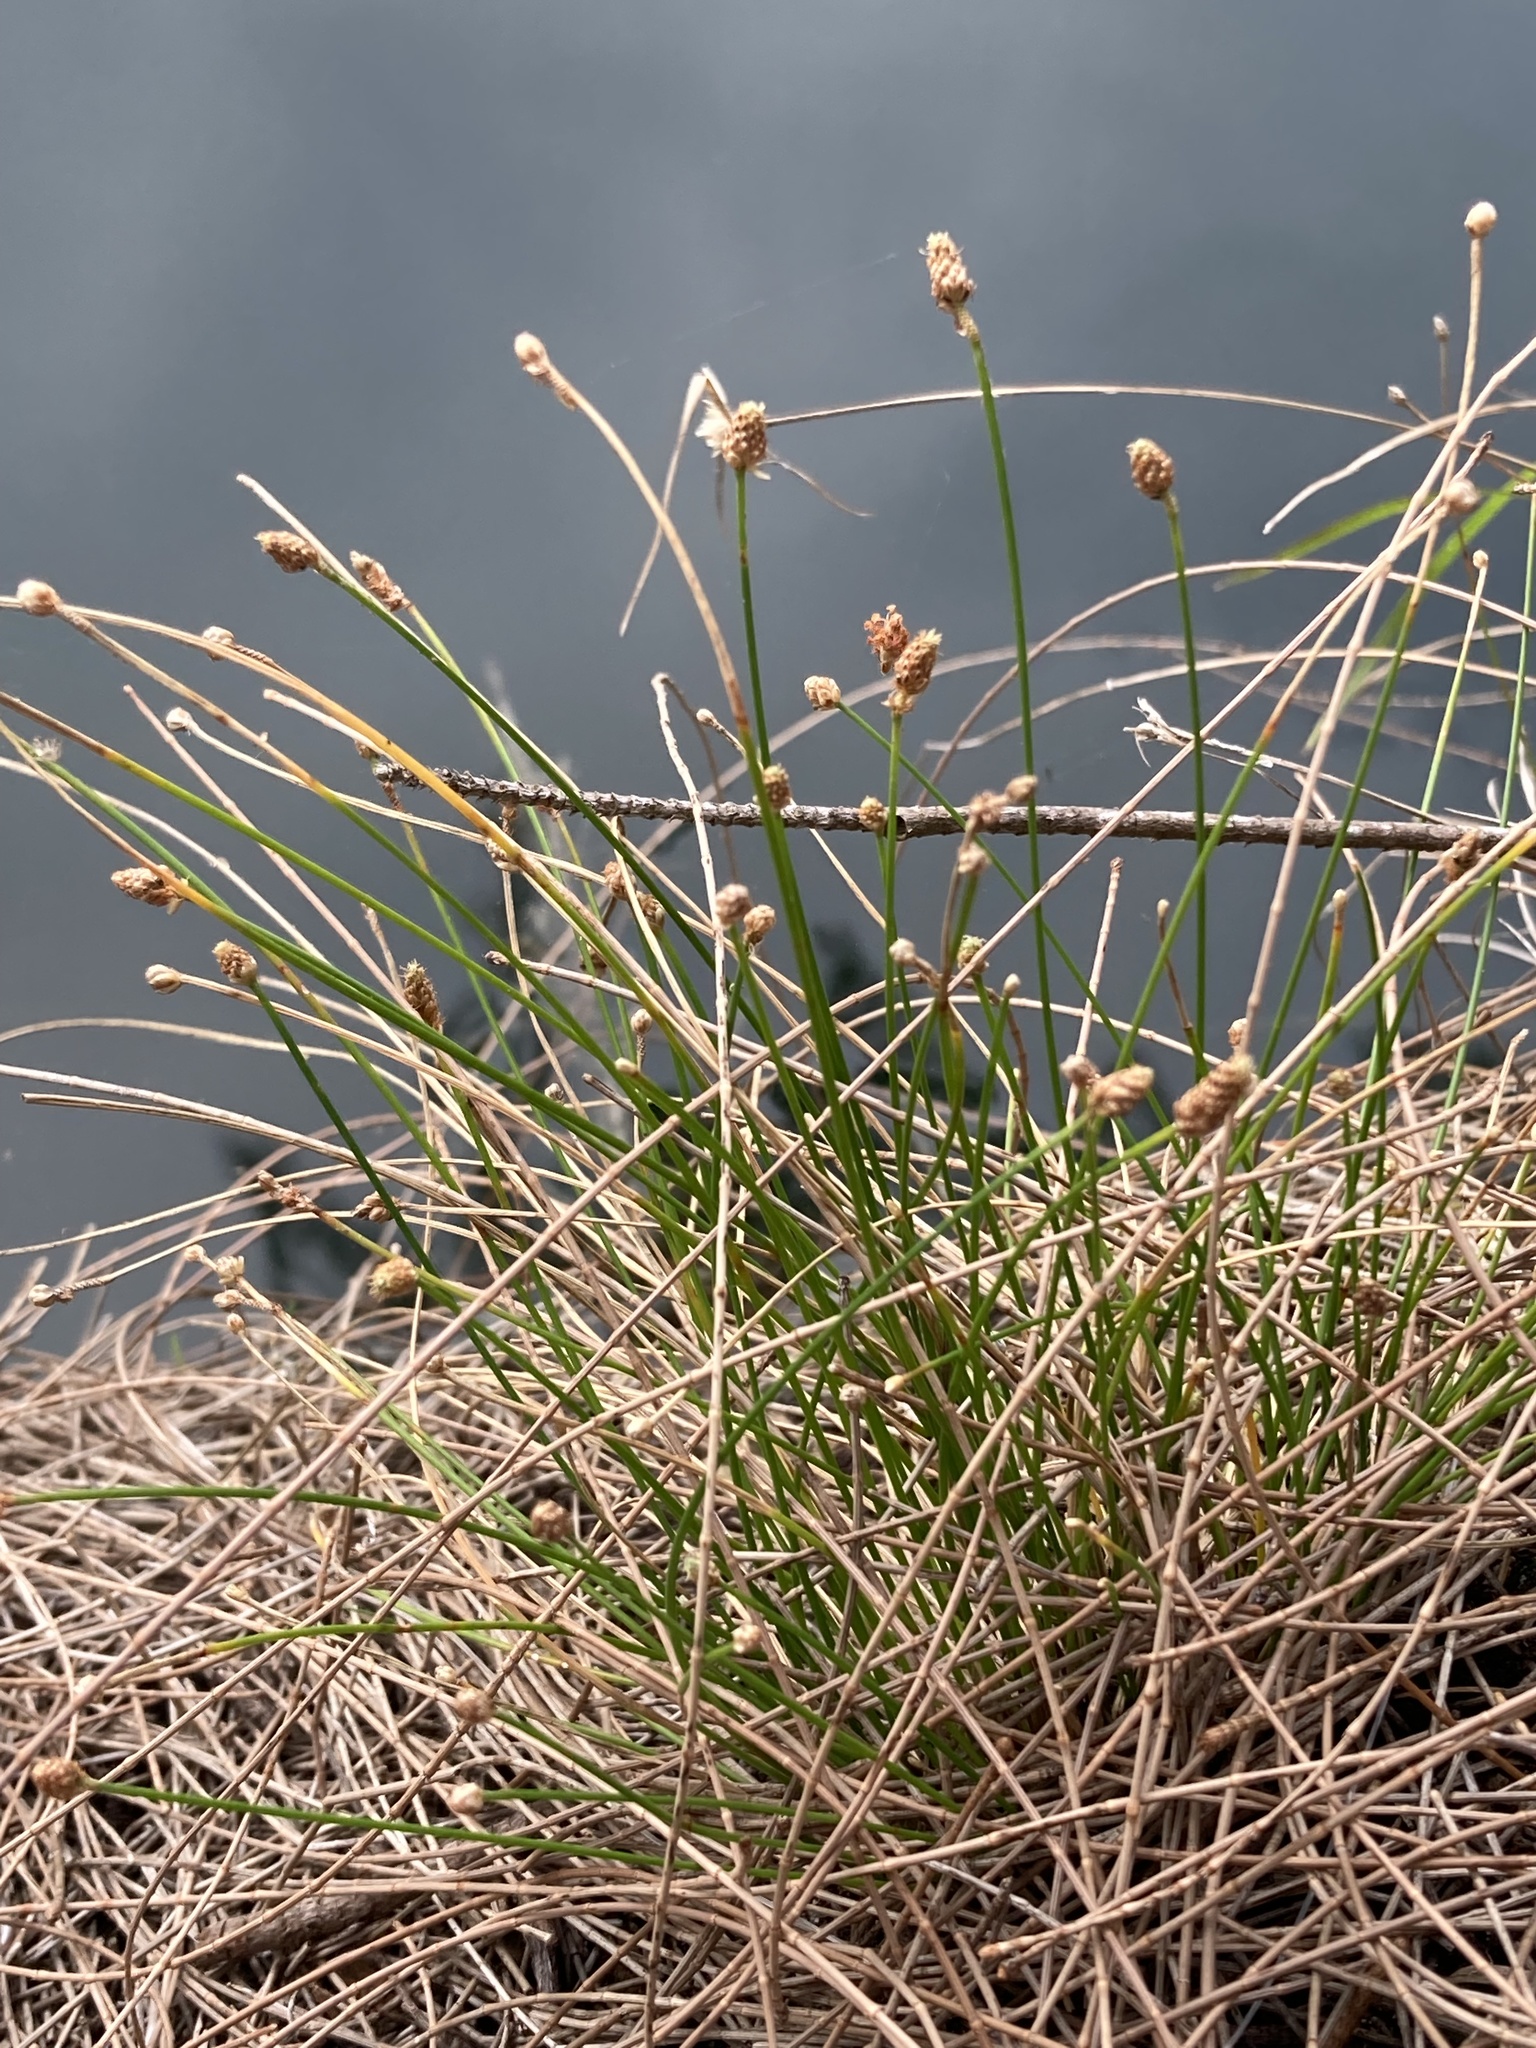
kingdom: Plantae
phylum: Tracheophyta
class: Liliopsida
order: Poales
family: Cyperaceae
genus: Eleocharis
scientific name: Eleocharis geniculata
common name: Canada spikesedge
